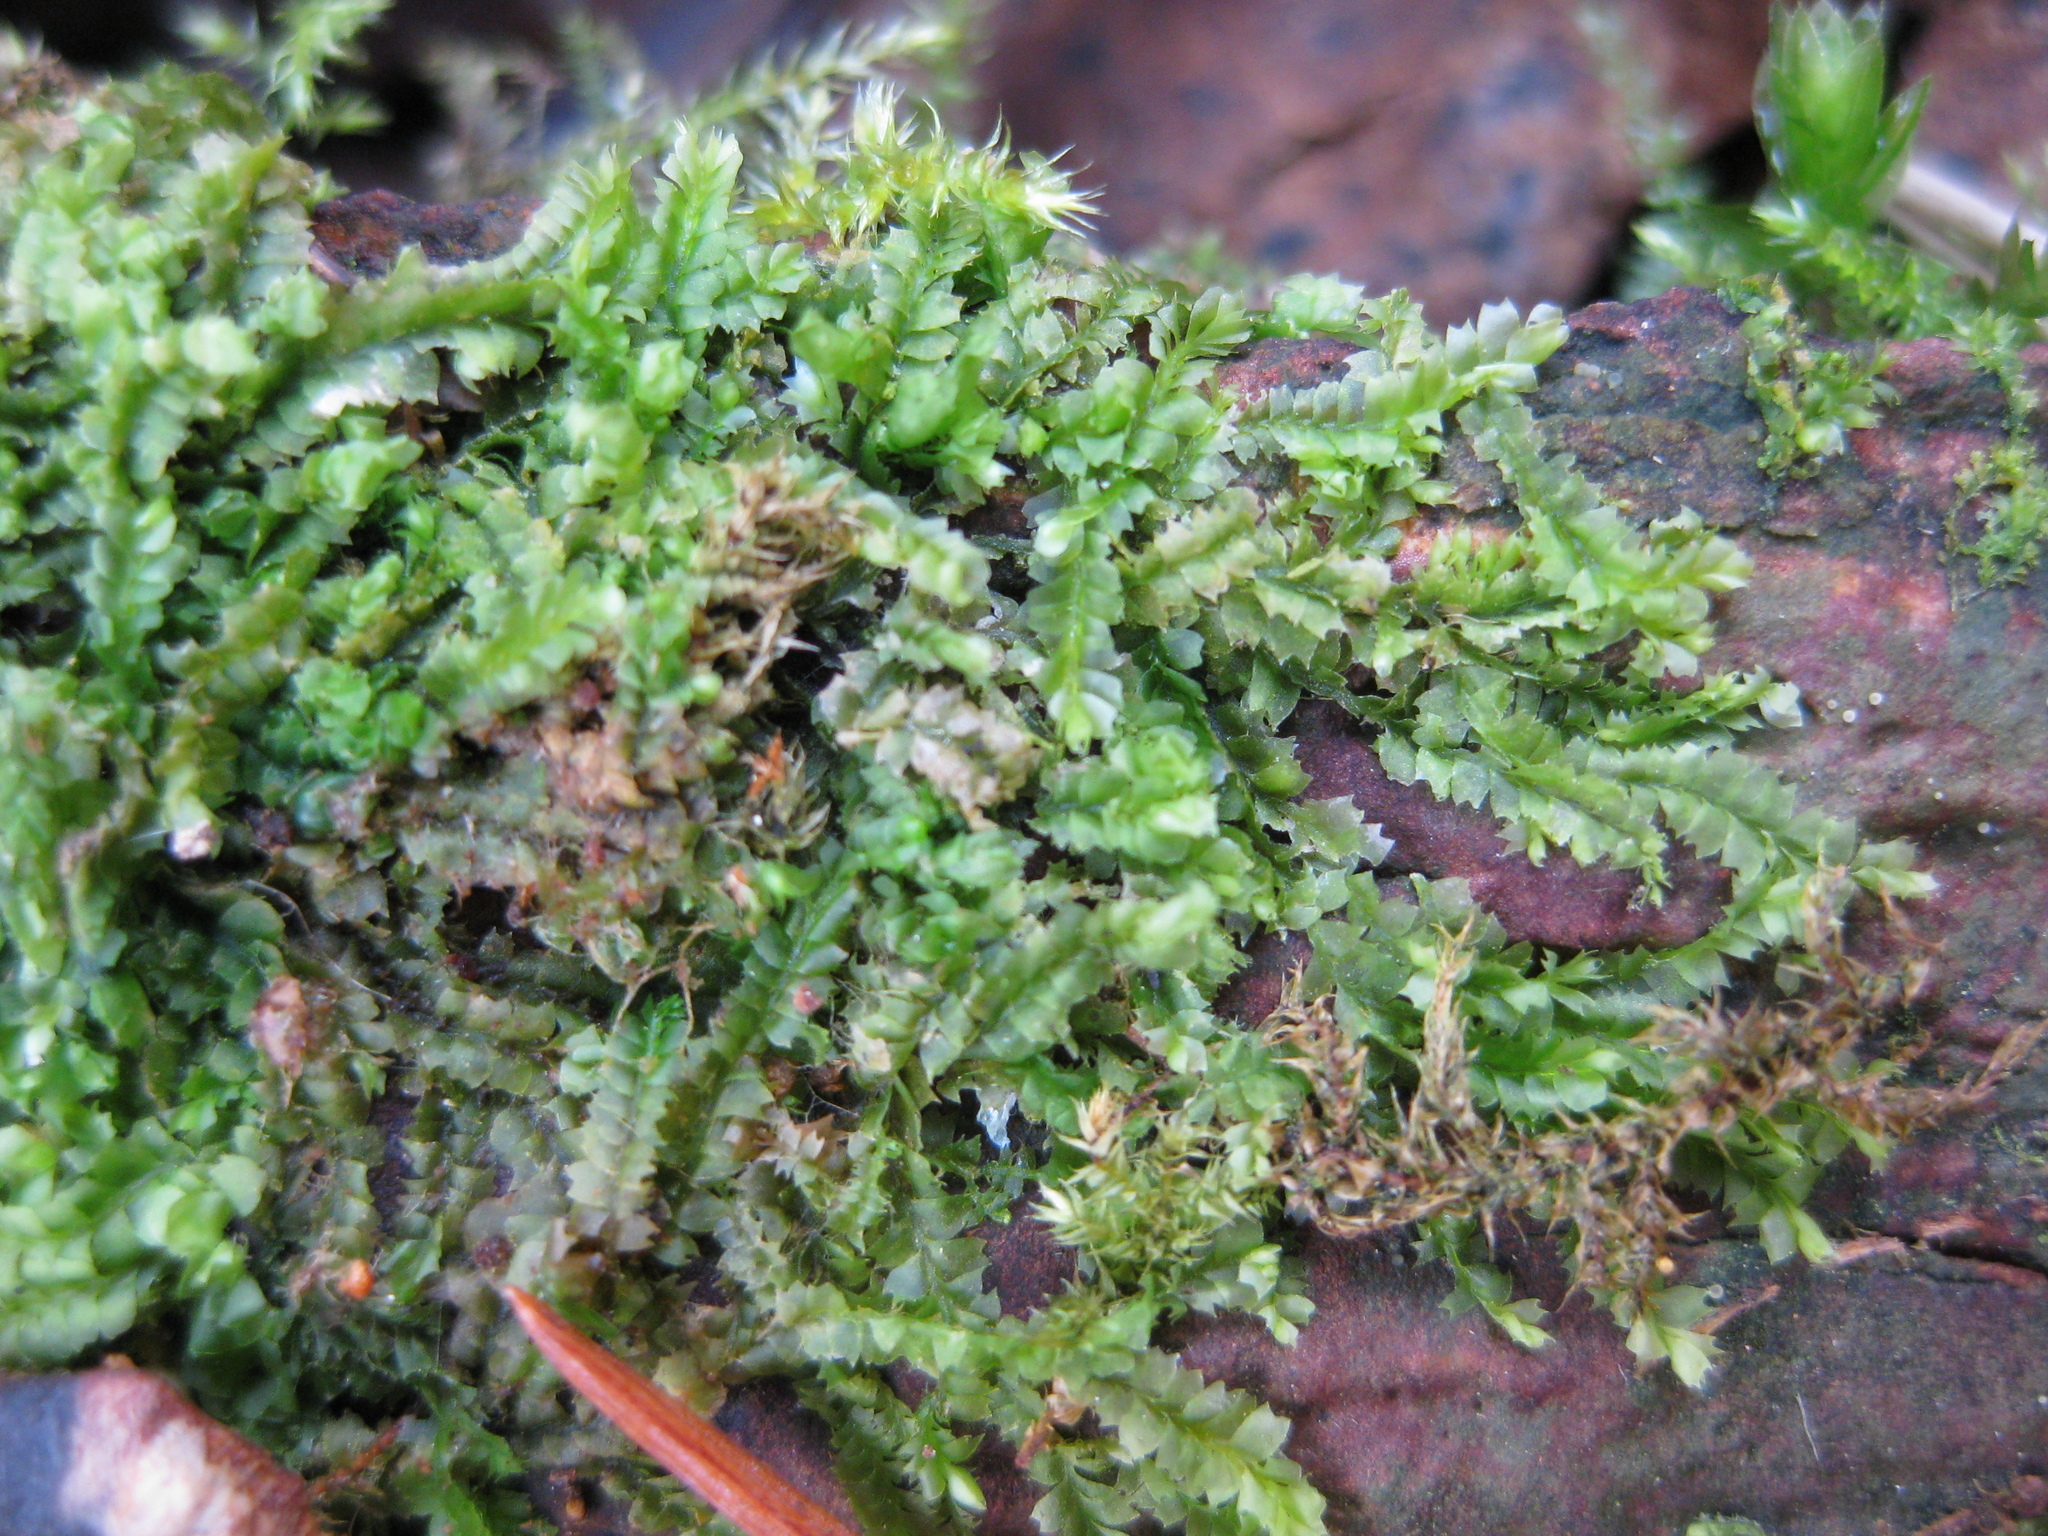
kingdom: Plantae
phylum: Marchantiophyta
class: Jungermanniopsida
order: Jungermanniales
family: Lophocoleaceae
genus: Lophocolea
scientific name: Lophocolea heterophylla
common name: Variable-leaved crestwort
